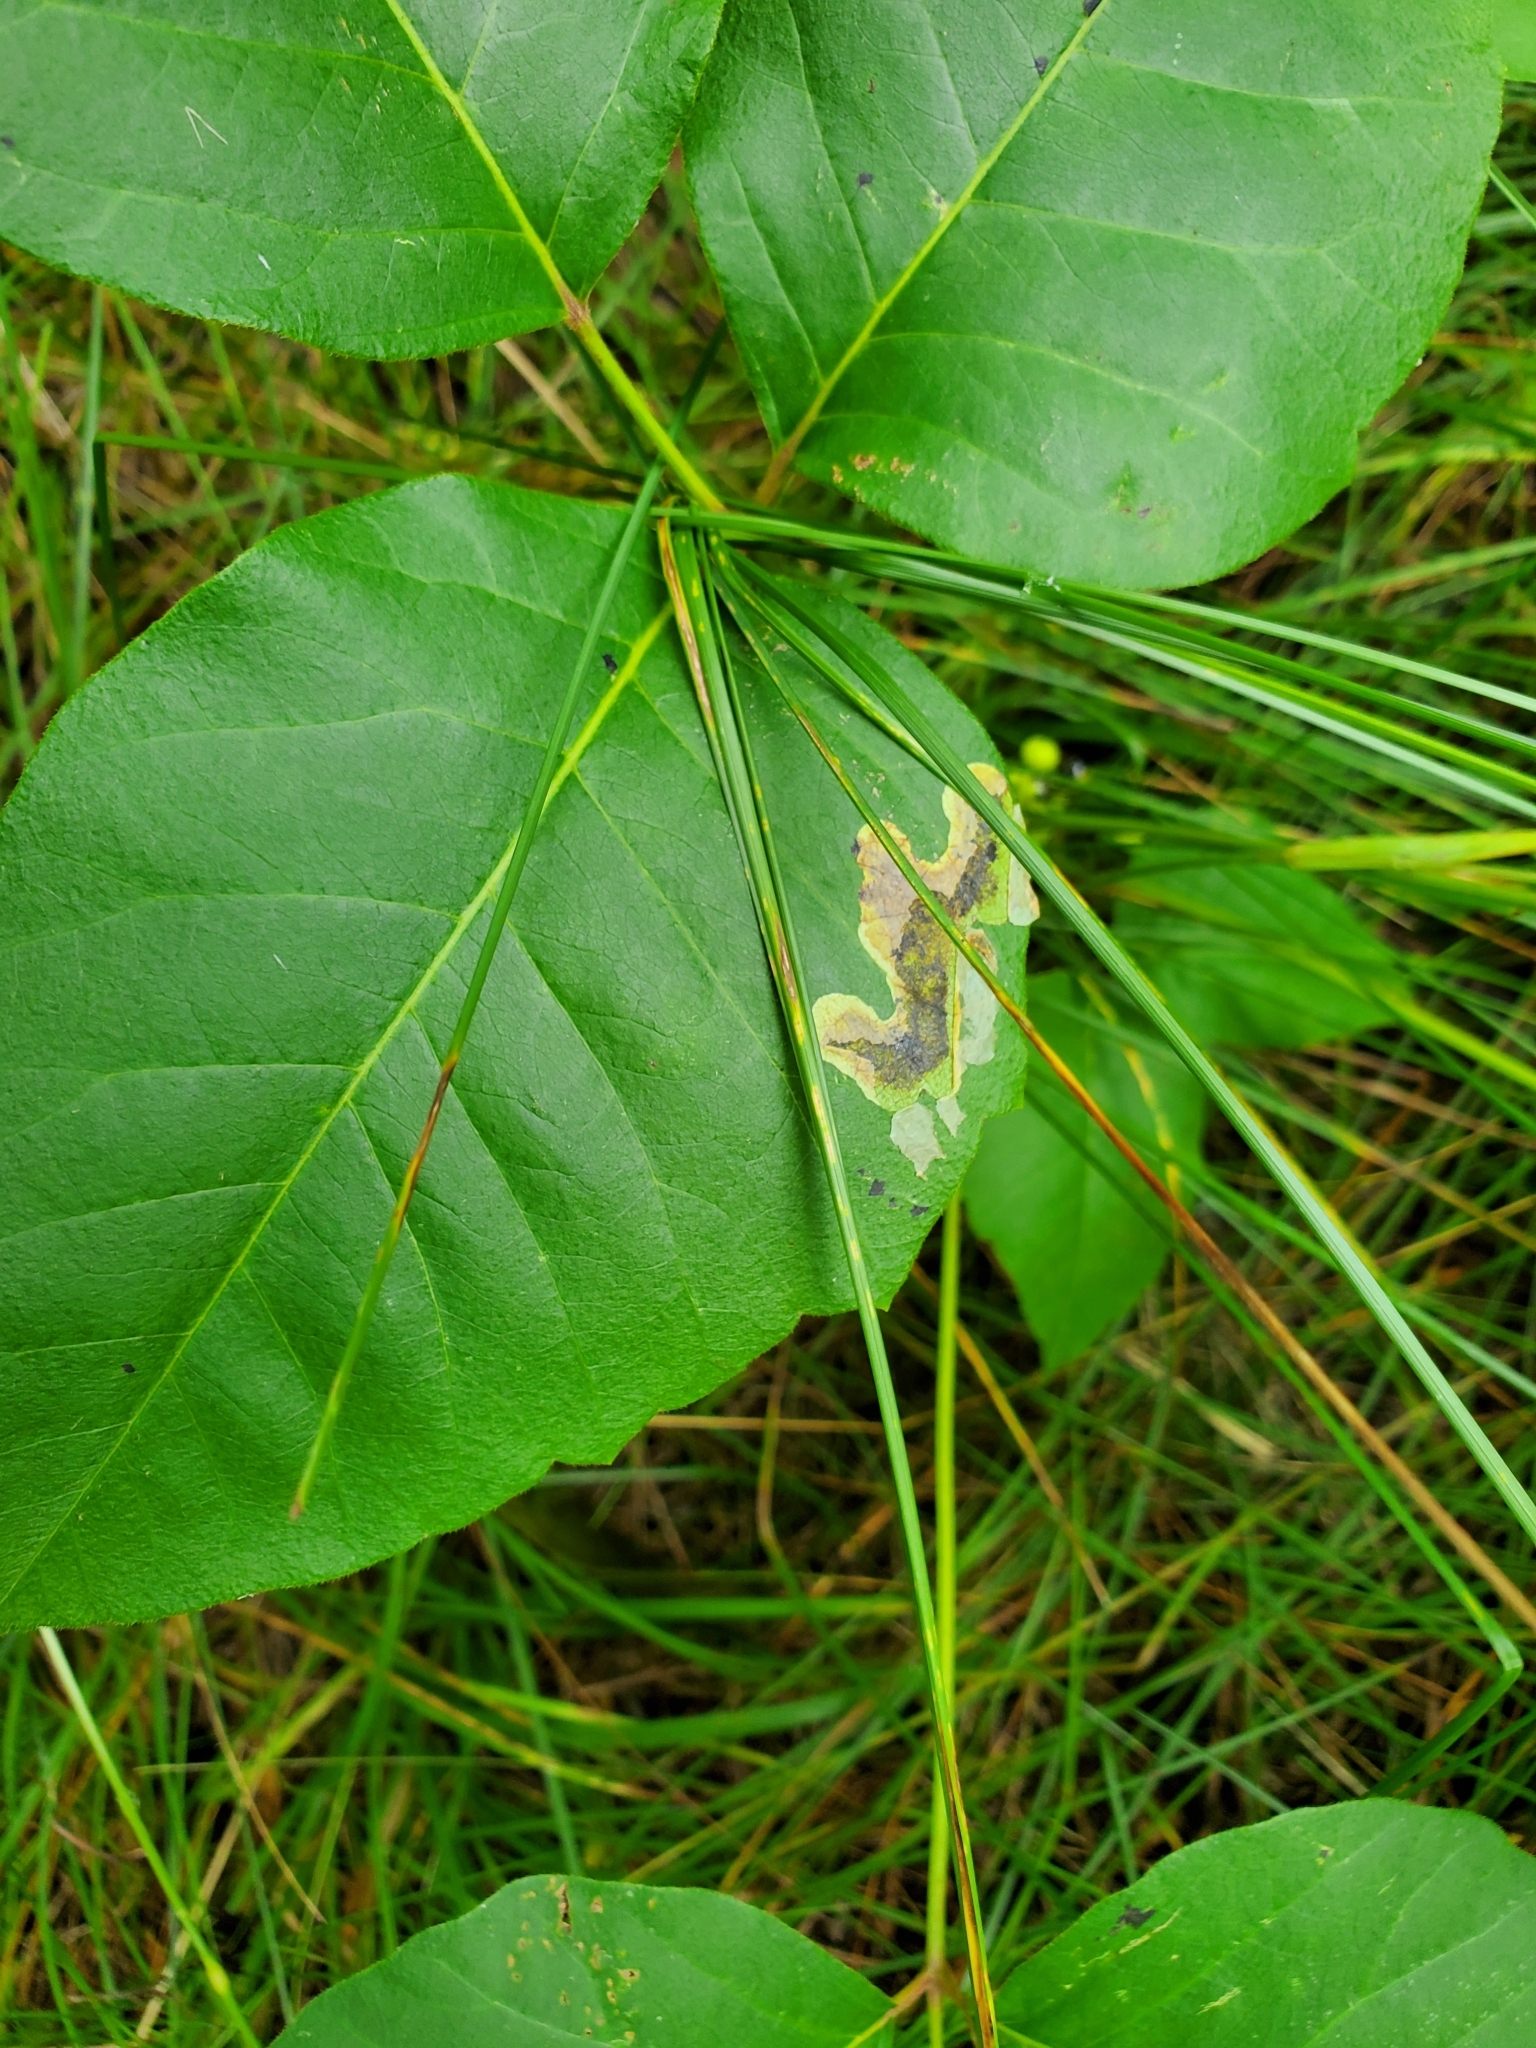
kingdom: Animalia
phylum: Arthropoda
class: Insecta
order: Lepidoptera
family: Gracillariidae
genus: Cameraria
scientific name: Cameraria guttifinitella
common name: Poison ivy leaf-miner moth
